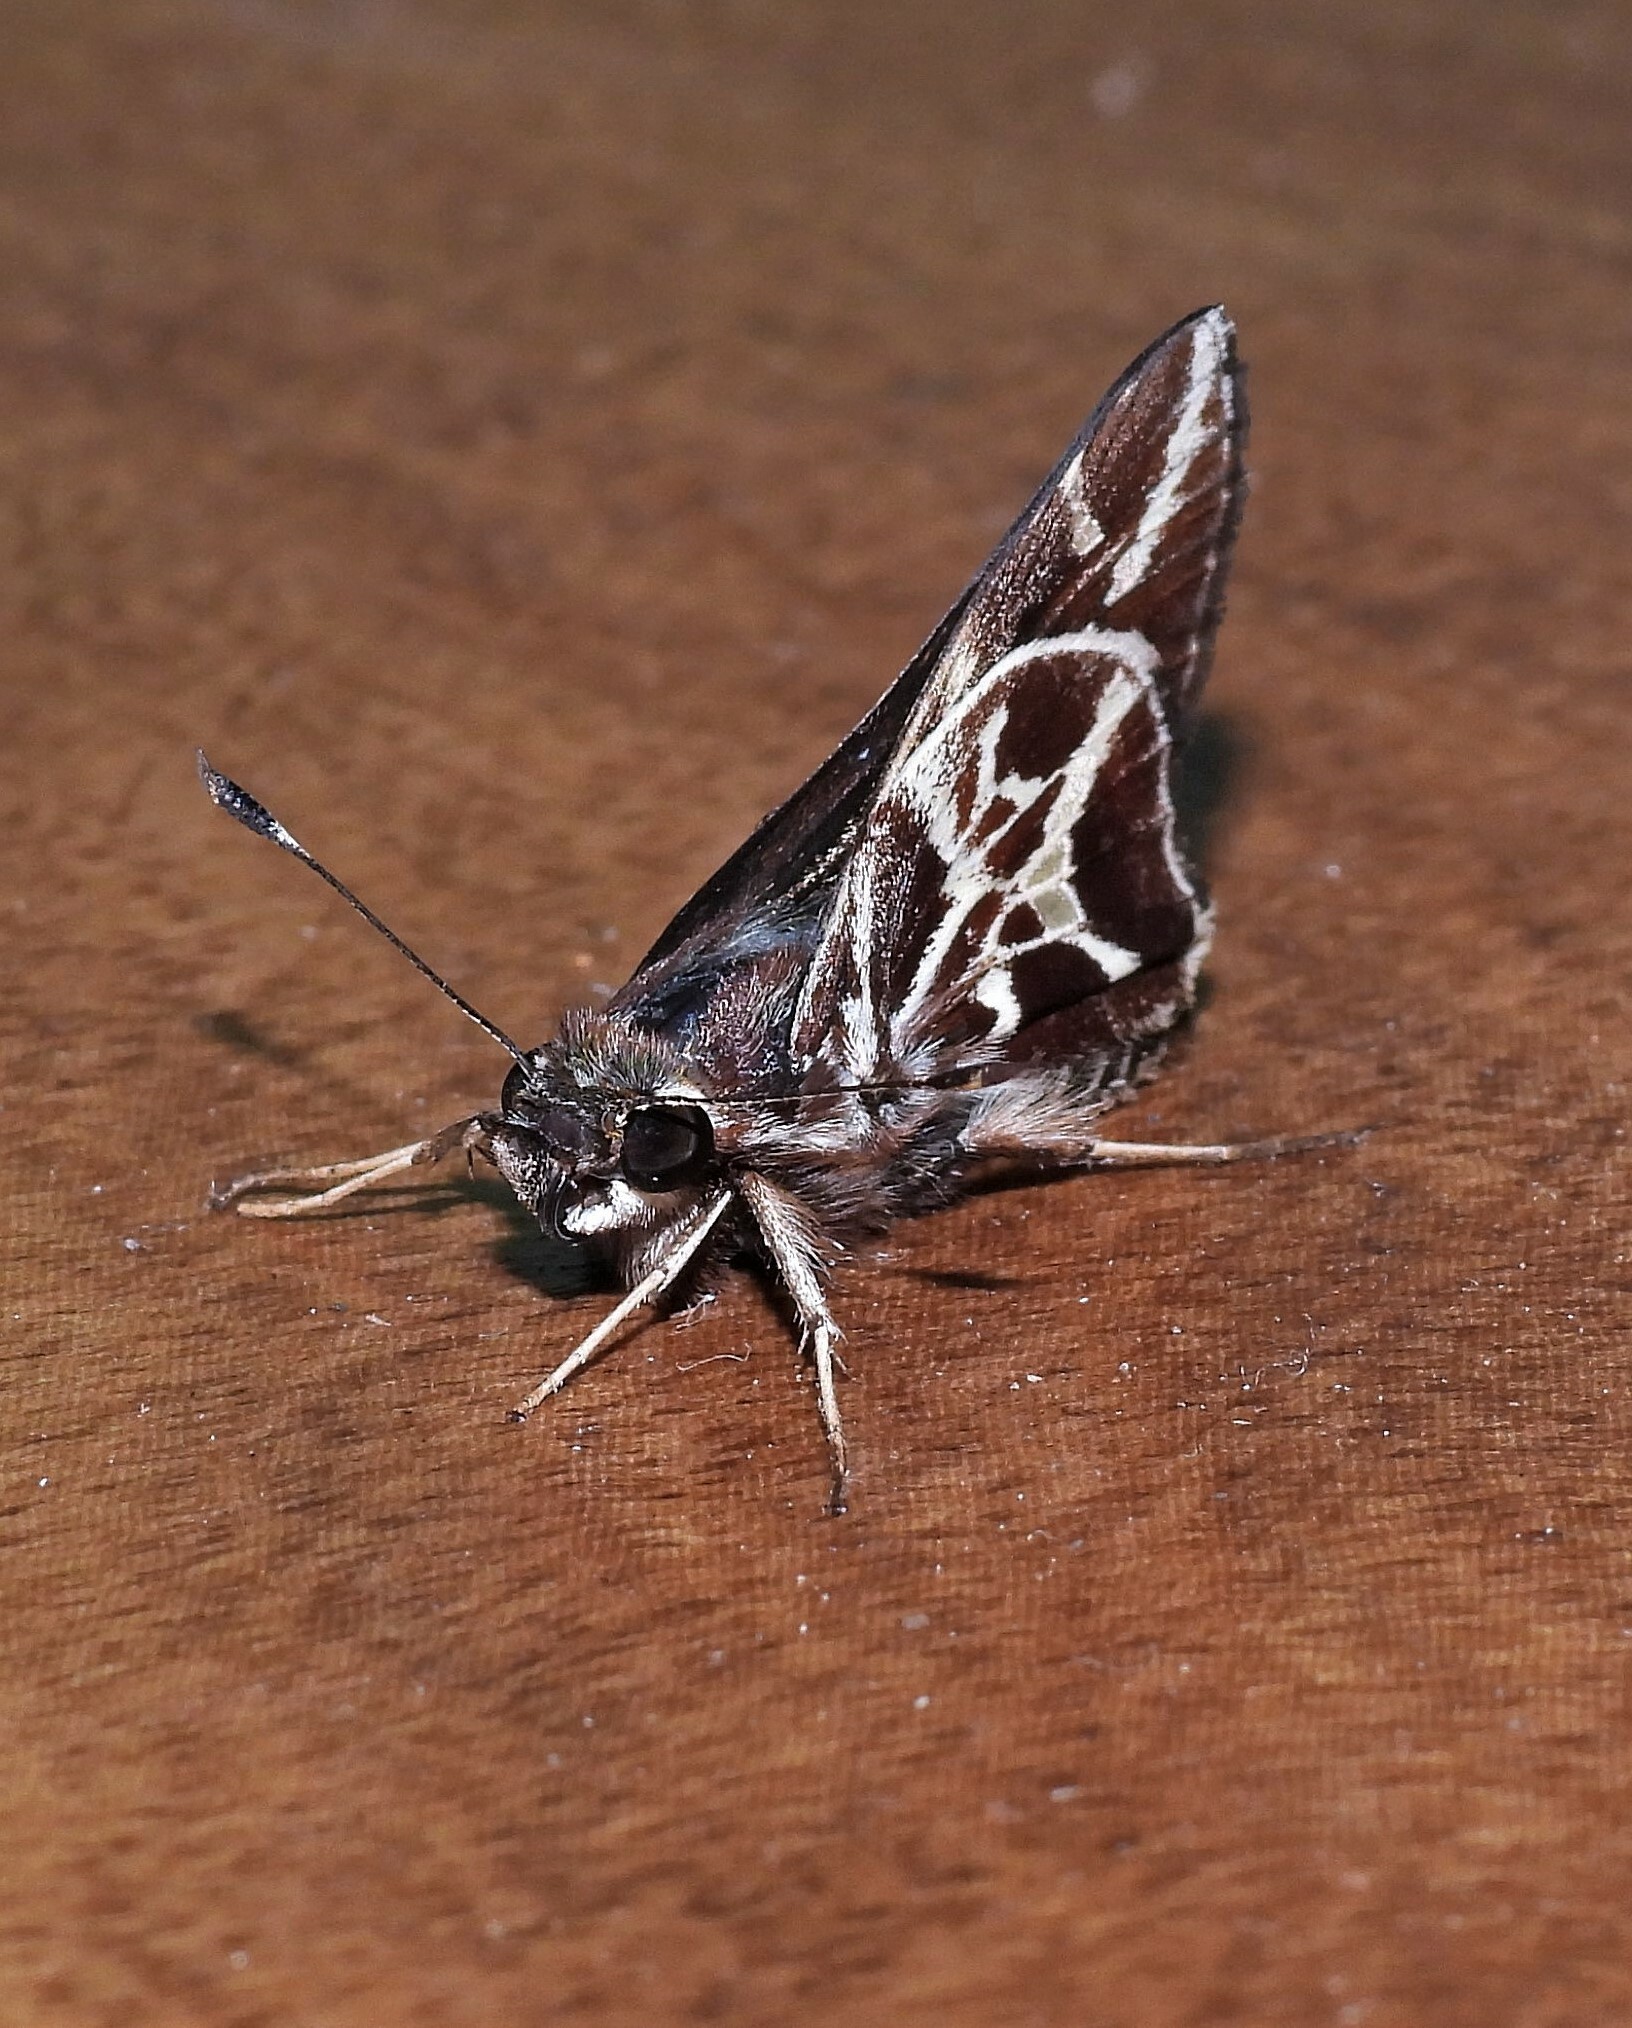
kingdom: Animalia
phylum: Arthropoda
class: Insecta
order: Lepidoptera
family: Hesperiidae
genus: Thespieus
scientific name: Thespieus xarippe
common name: Xarippe skipper
